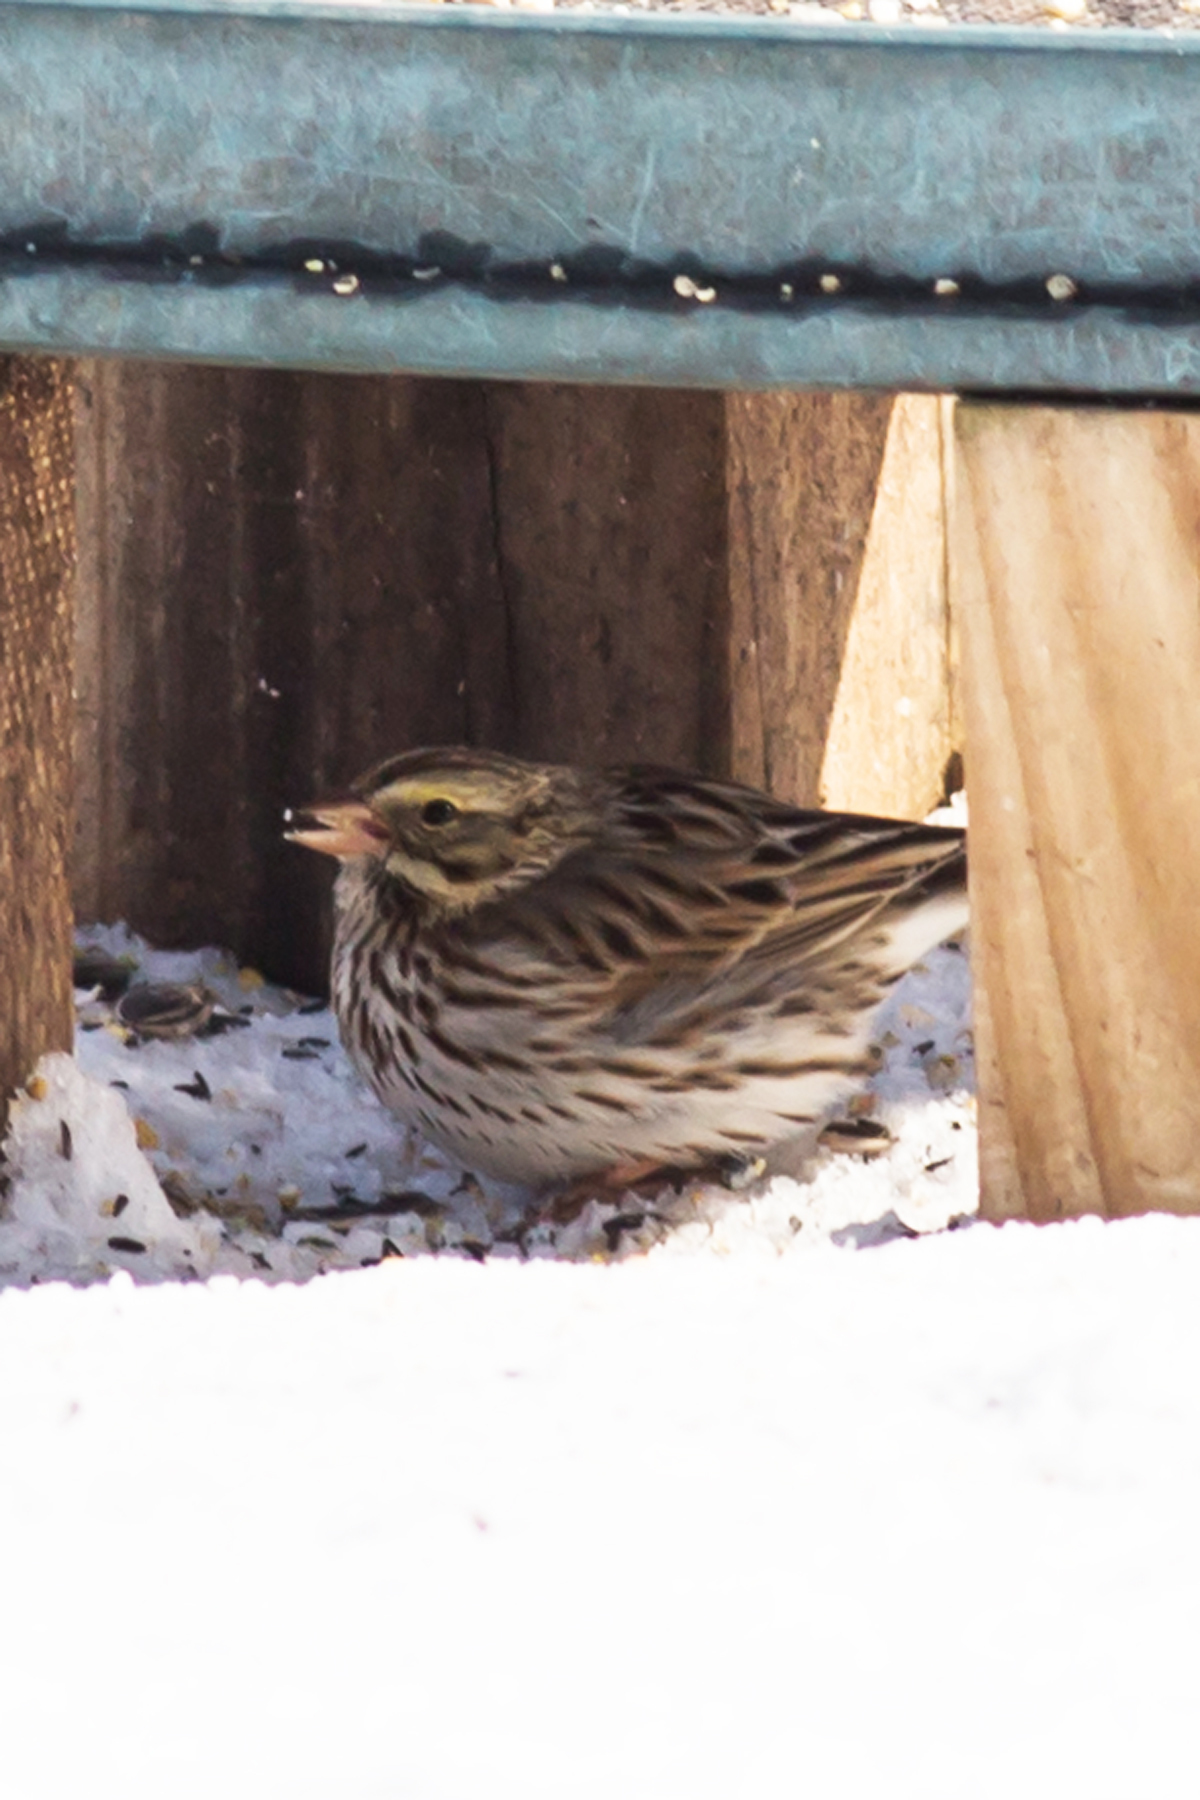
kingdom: Animalia
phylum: Chordata
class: Aves
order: Passeriformes
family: Passerellidae
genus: Passerculus
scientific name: Passerculus sandwichensis
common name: Savannah sparrow
